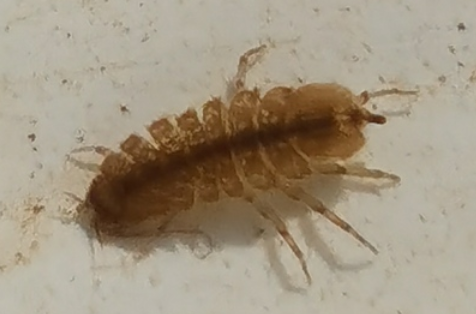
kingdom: Animalia
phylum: Arthropoda
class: Malacostraca
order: Isopoda
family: Asellidae
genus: Asellus
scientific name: Asellus aquaticus
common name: Water hog lice/slaters
